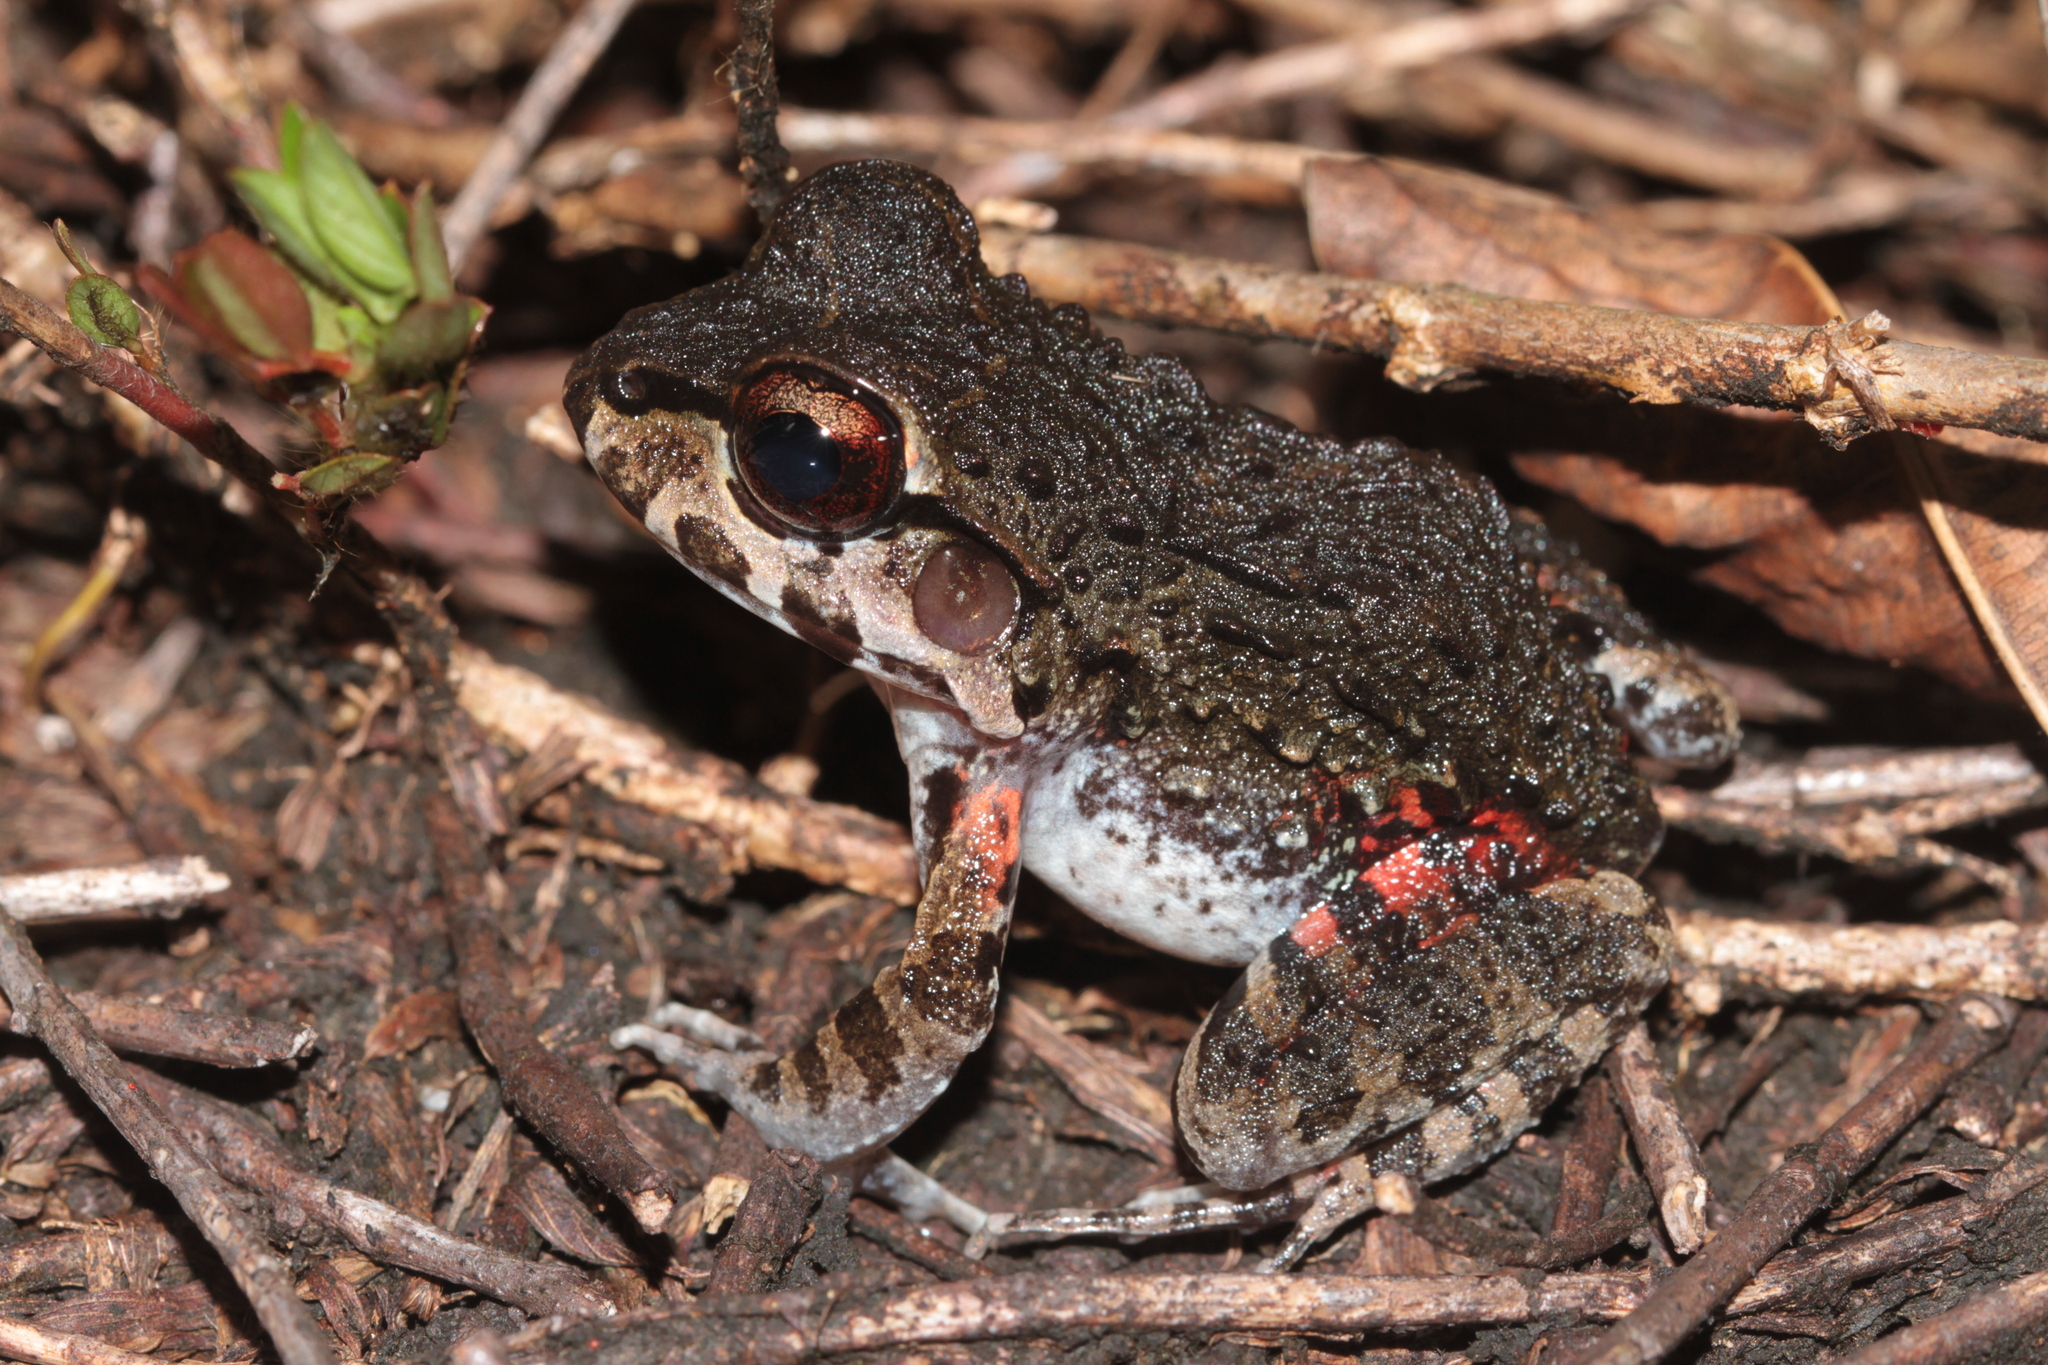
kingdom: Animalia
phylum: Chordata
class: Amphibia
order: Anura
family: Leptodactylidae
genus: Leptodactylus
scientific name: Leptodactylus myersi
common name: Myers' thin-toed frog
